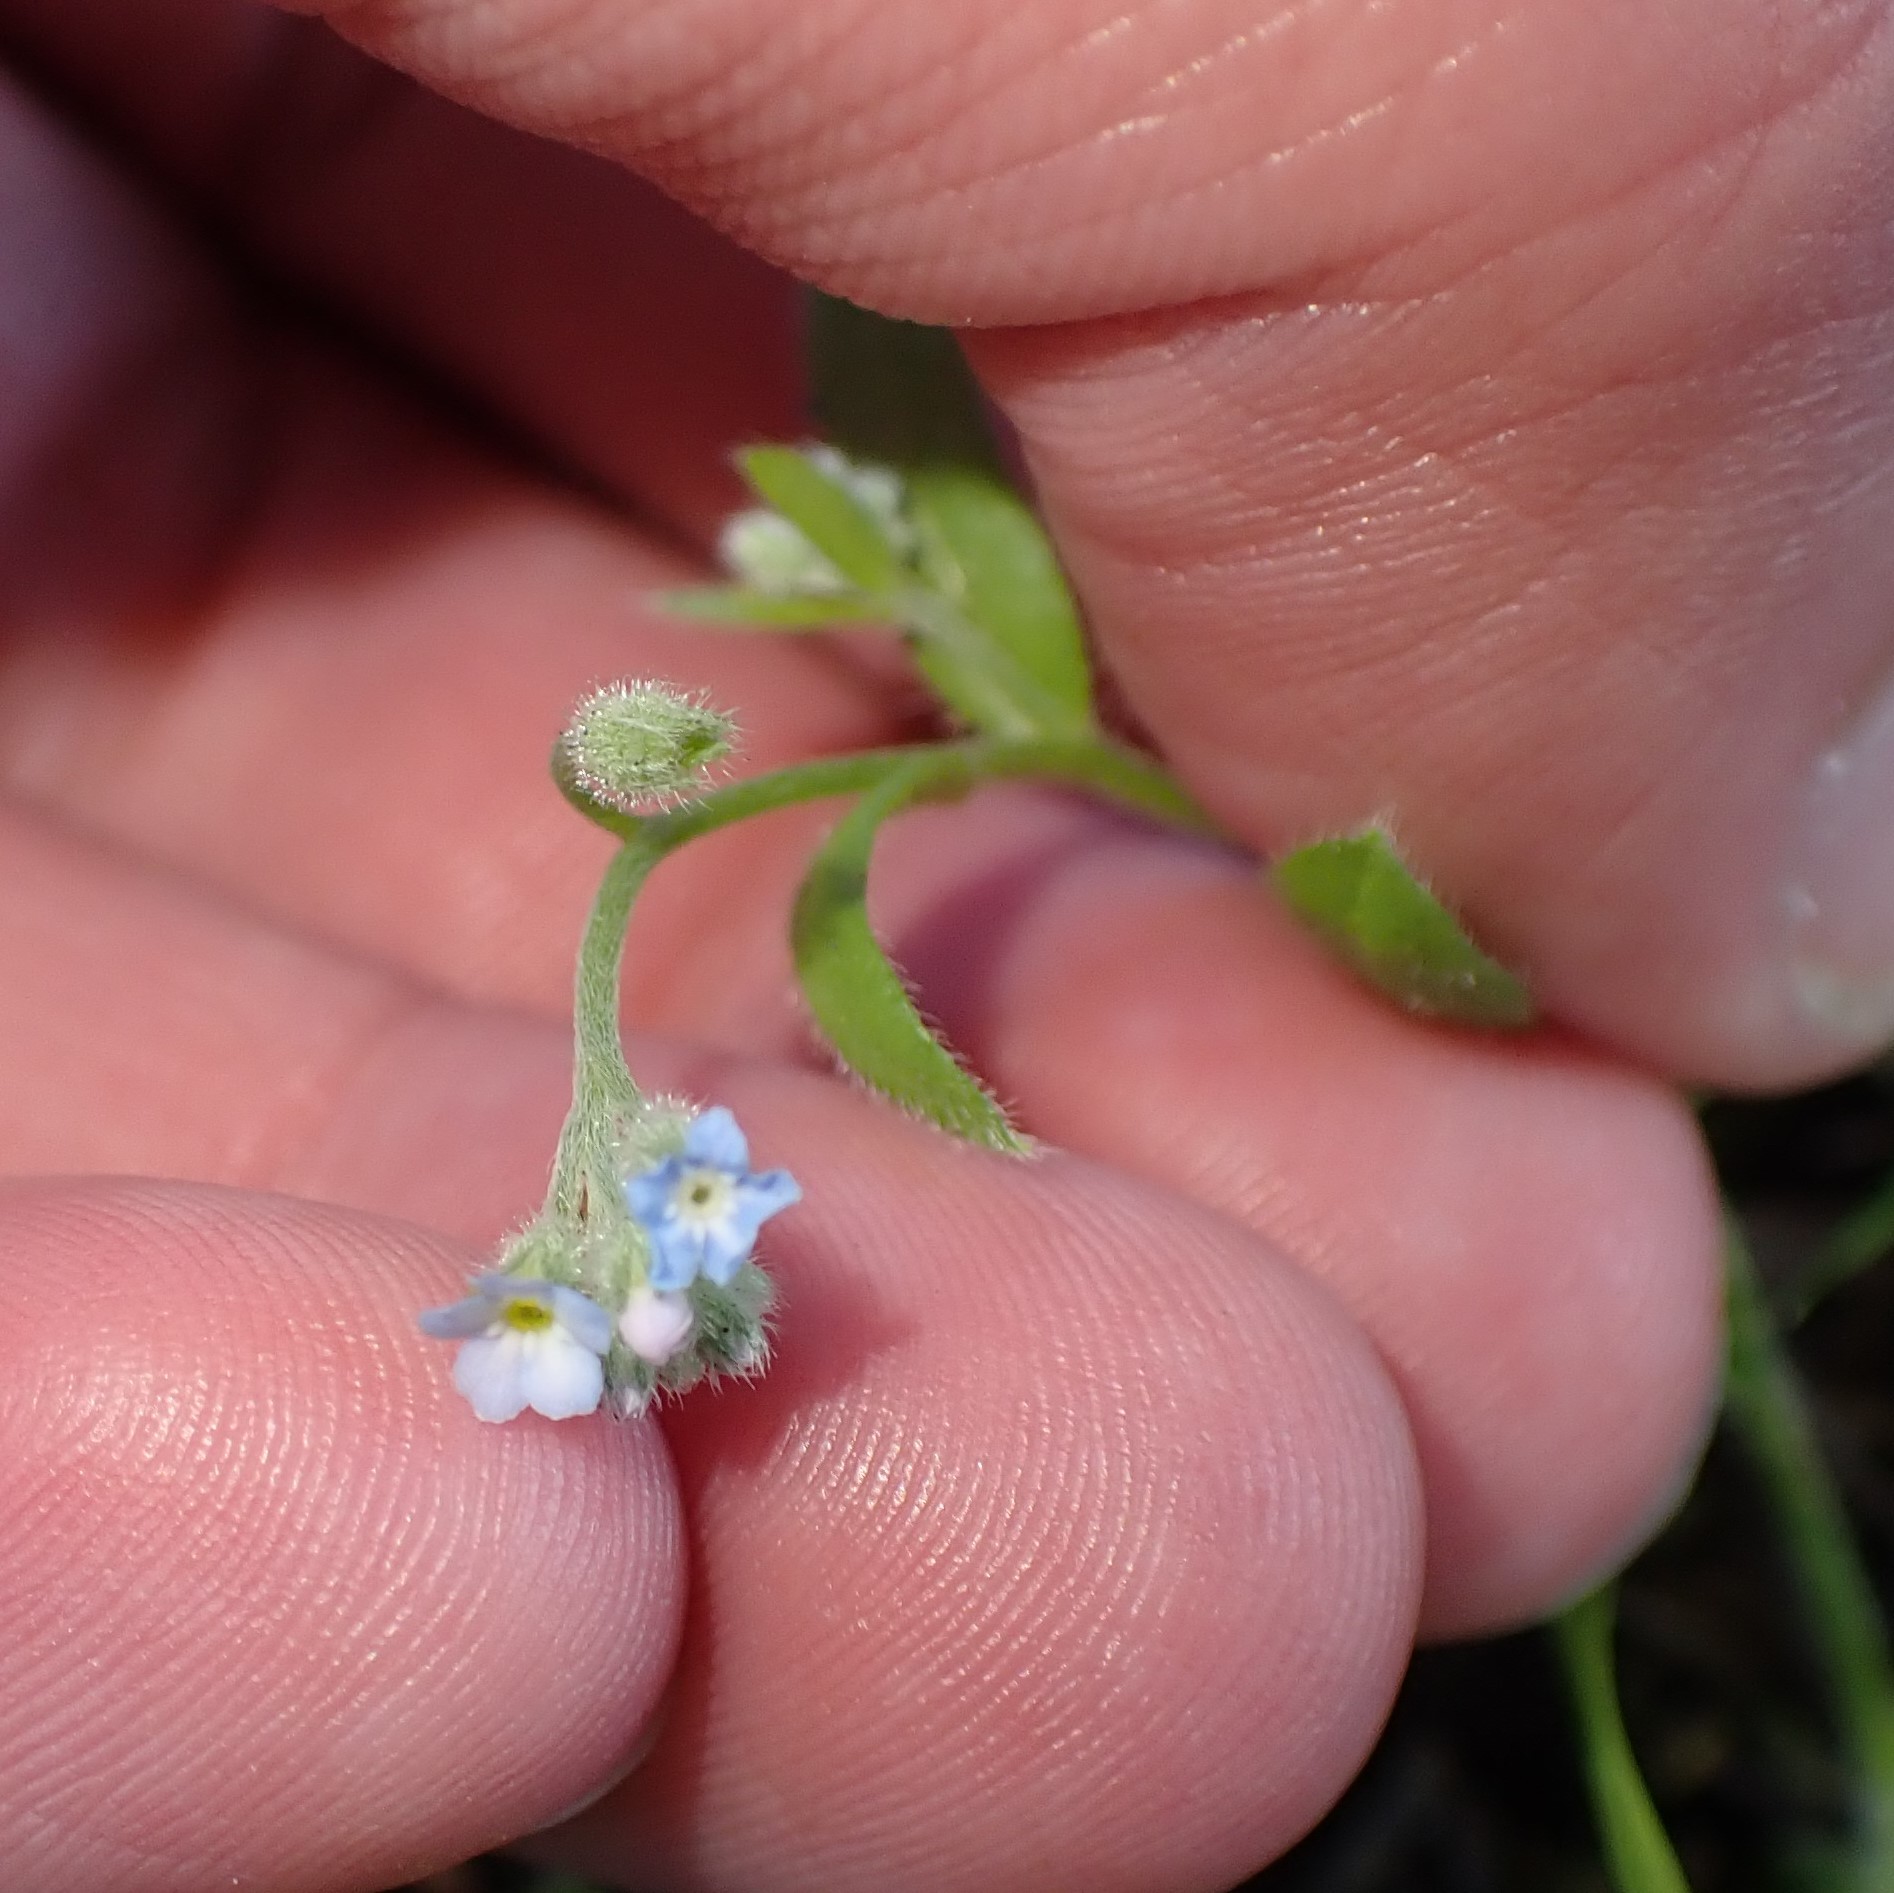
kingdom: Plantae
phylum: Tracheophyta
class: Magnoliopsida
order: Boraginales
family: Boraginaceae
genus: Myosotis
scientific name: Myosotis arvensis
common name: Field forget-me-not
